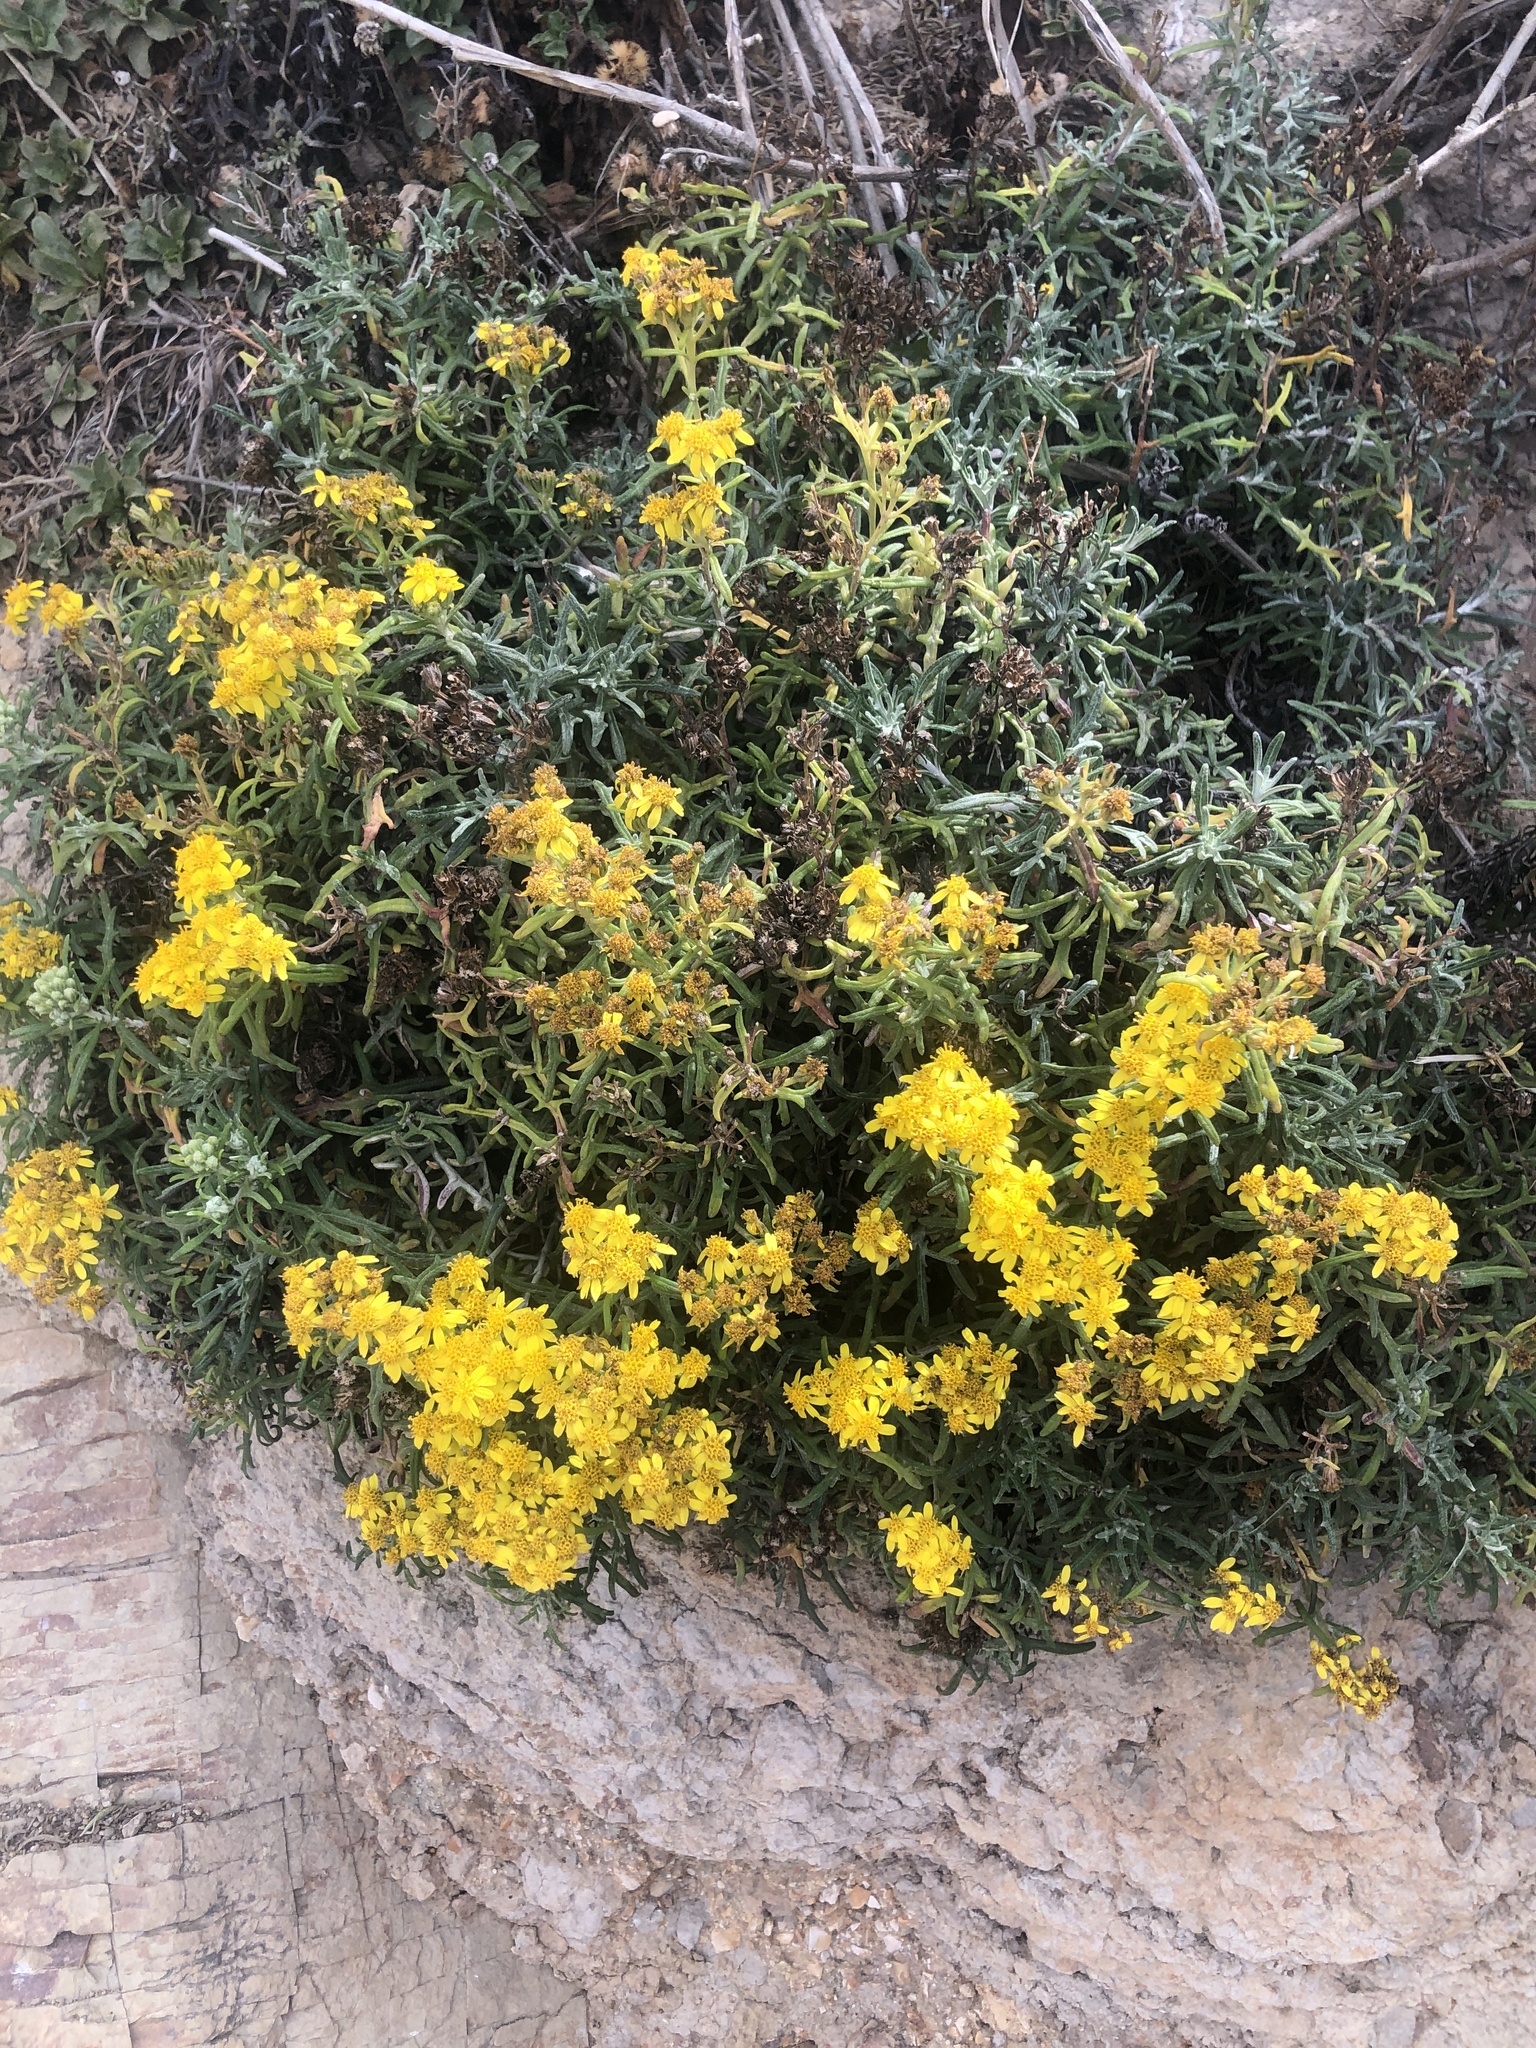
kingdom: Plantae
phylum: Tracheophyta
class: Magnoliopsida
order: Asterales
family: Asteraceae
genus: Eriophyllum
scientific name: Eriophyllum staechadifolium
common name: Lizardtail
